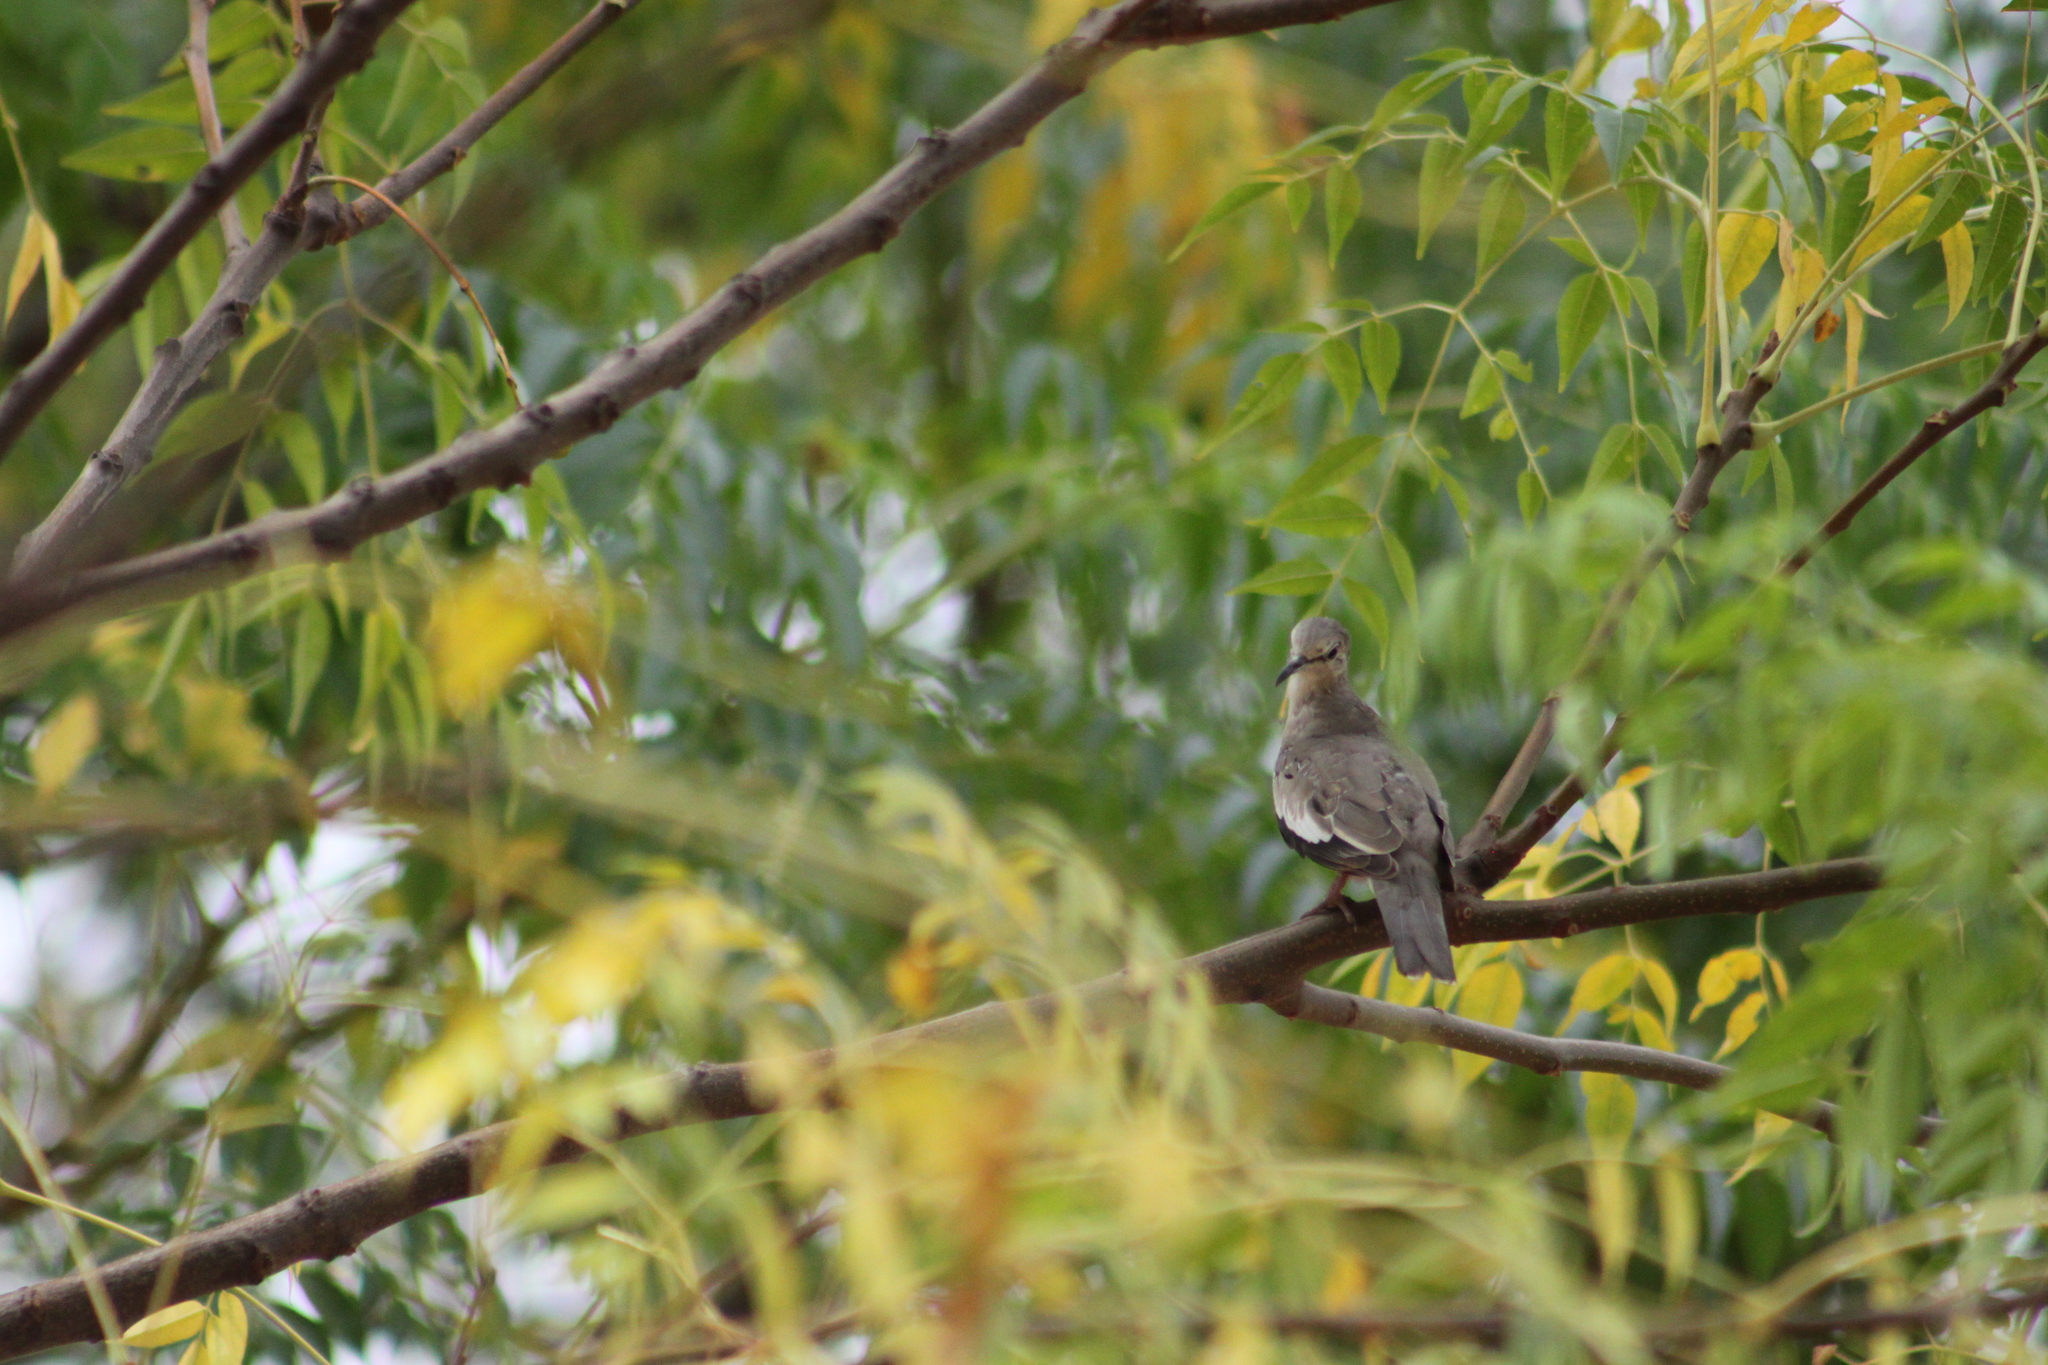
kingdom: Animalia
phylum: Chordata
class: Aves
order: Columbiformes
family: Columbidae
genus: Columbina
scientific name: Columbina picui
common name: Picui ground dove
